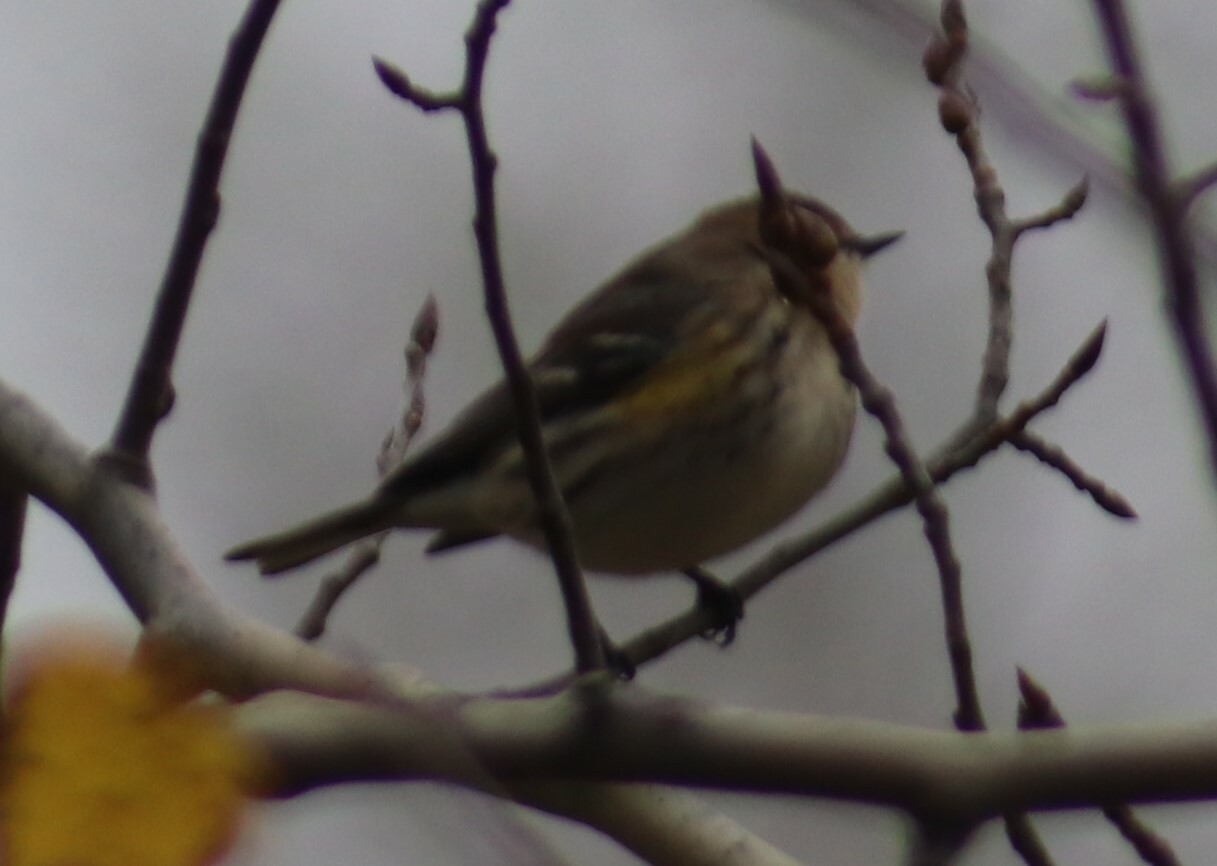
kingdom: Animalia
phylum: Chordata
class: Aves
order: Passeriformes
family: Parulidae
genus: Setophaga
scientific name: Setophaga coronata
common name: Myrtle warbler
